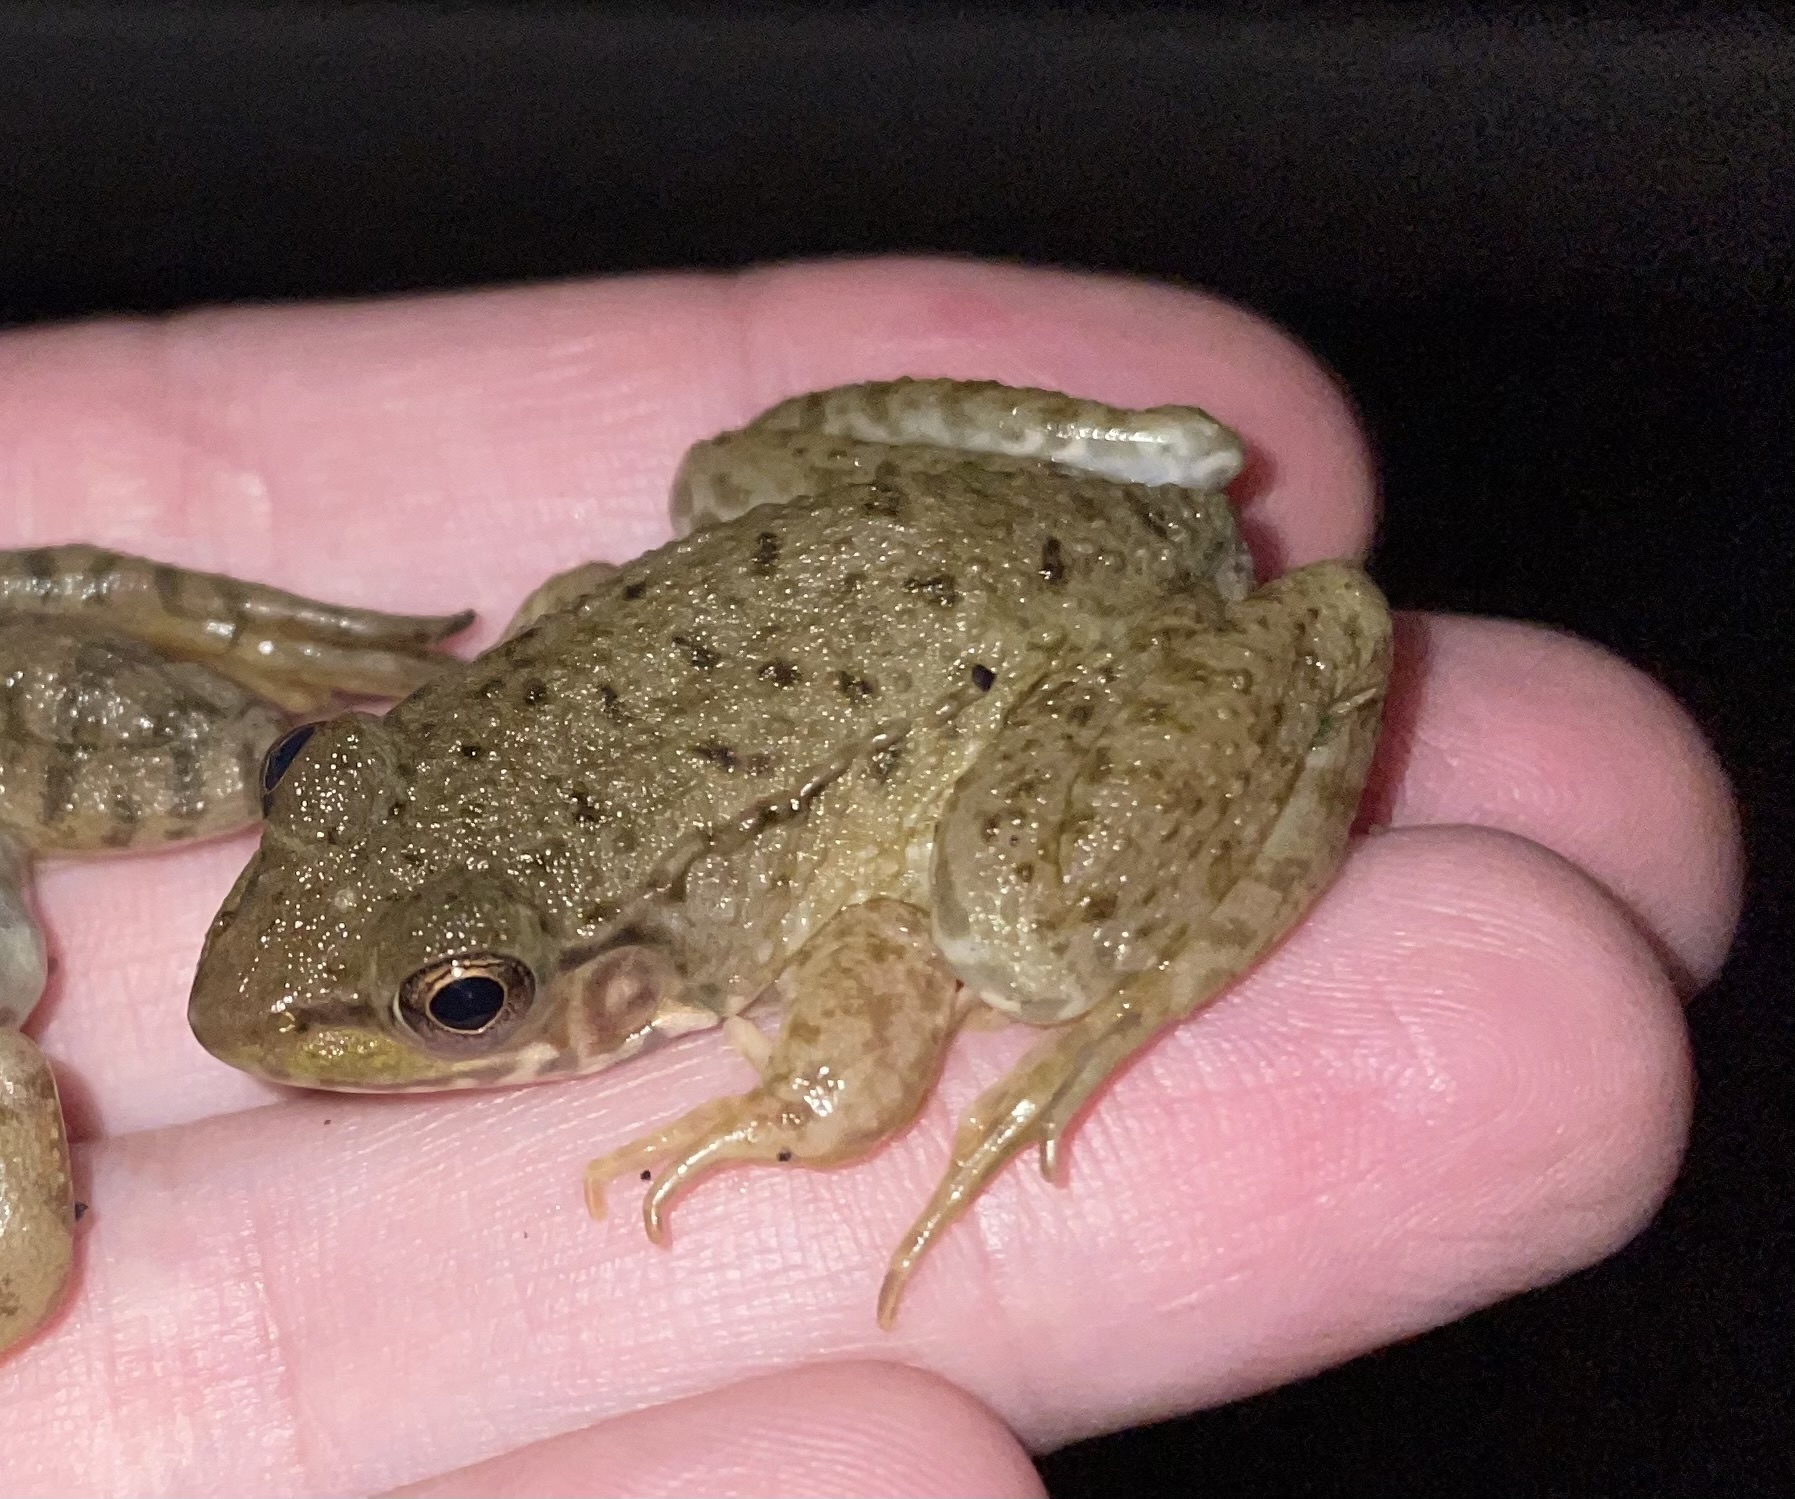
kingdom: Animalia
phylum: Chordata
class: Amphibia
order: Anura
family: Ranidae
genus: Lithobates
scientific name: Lithobates clamitans
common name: Green frog
